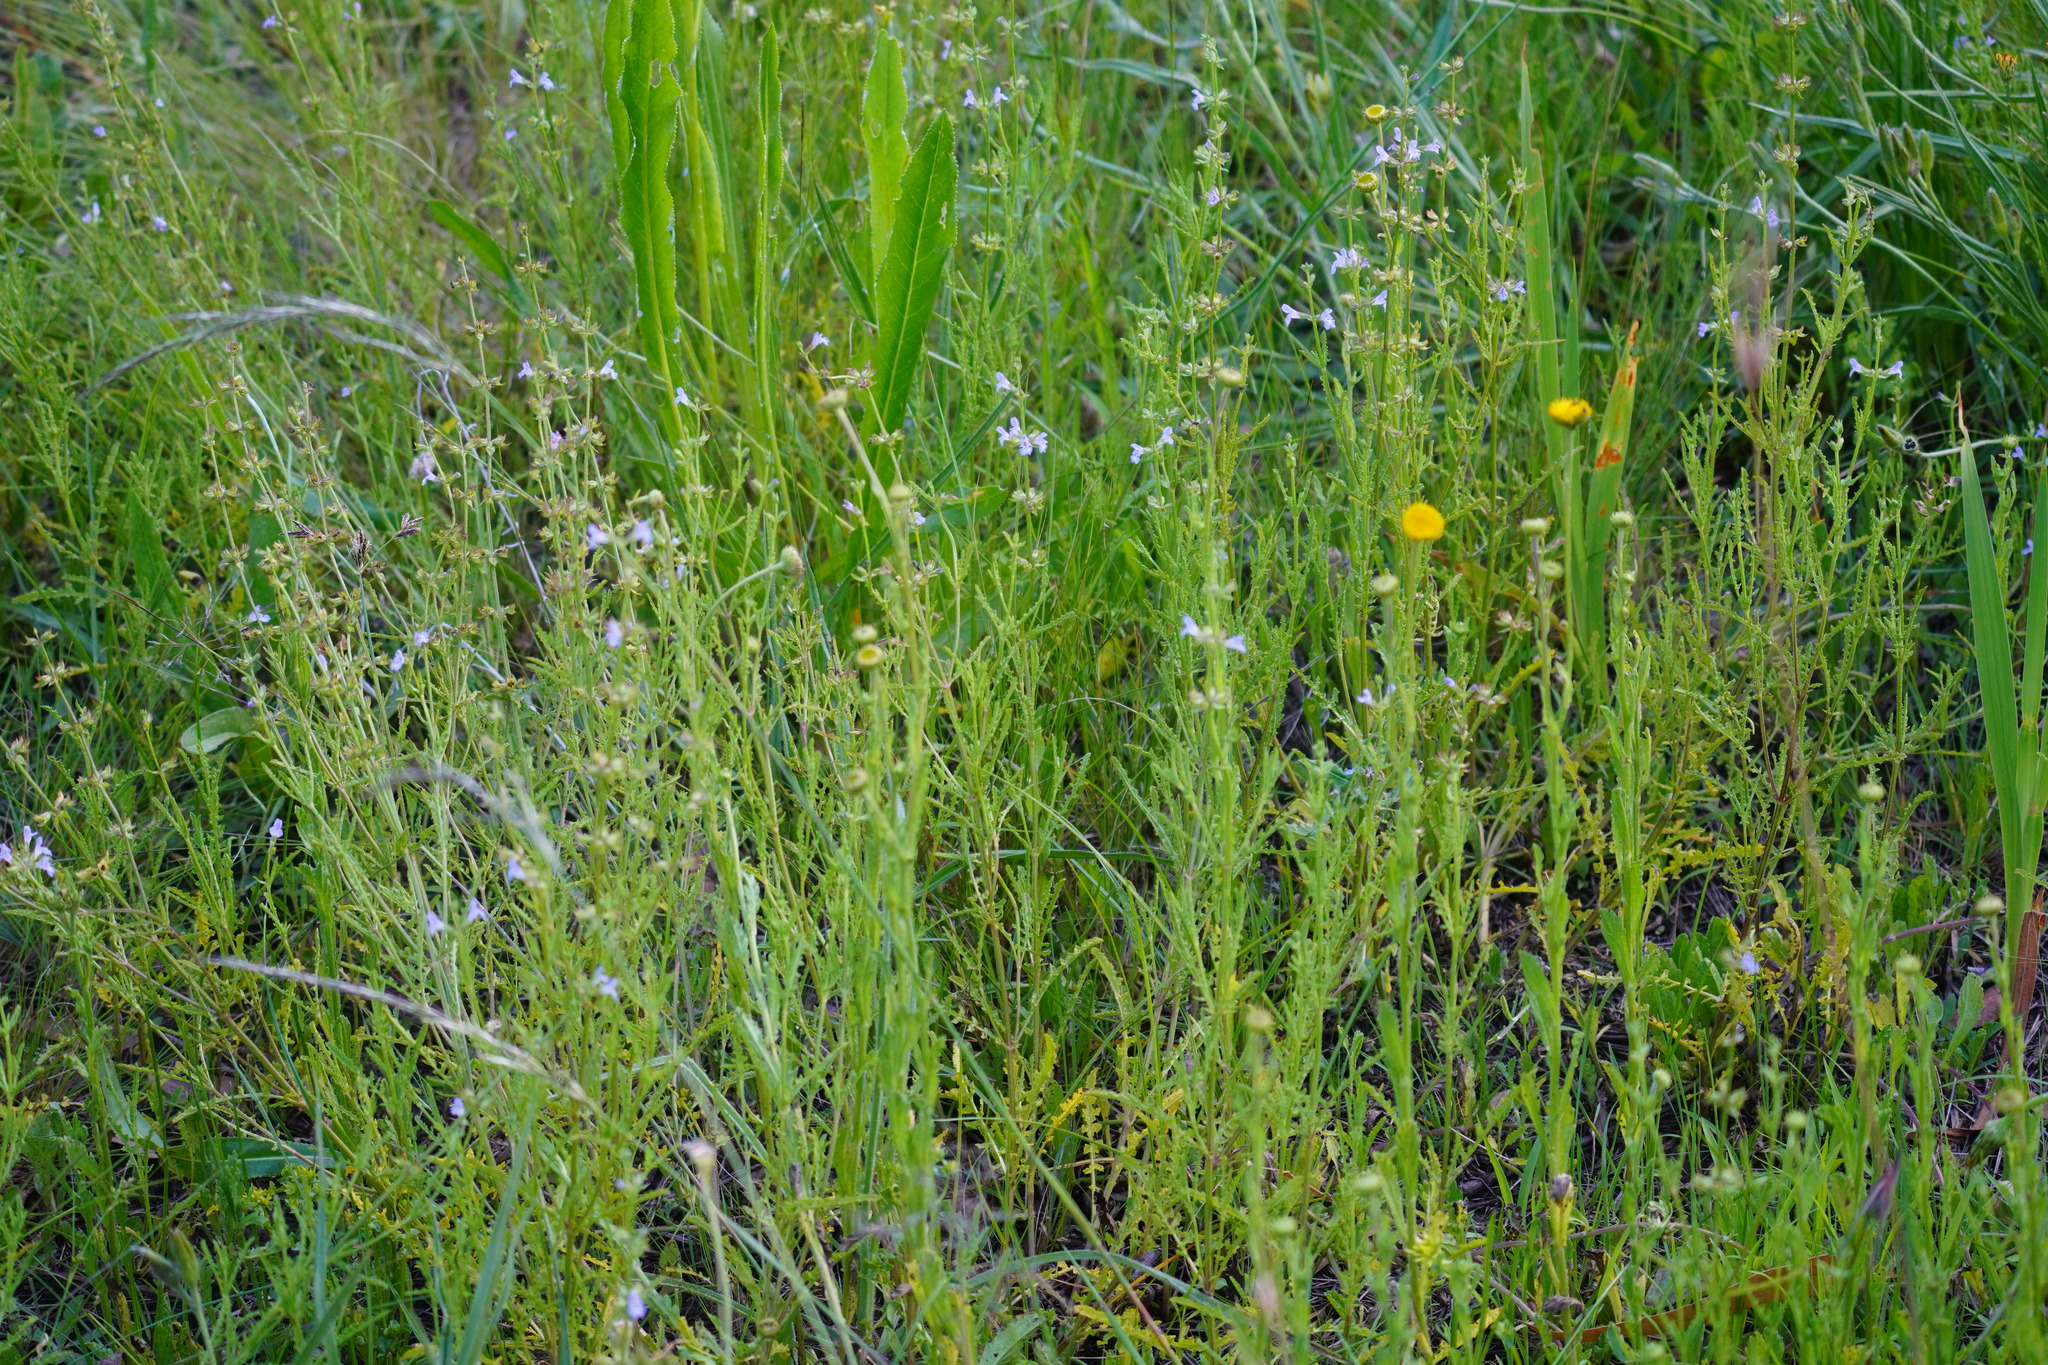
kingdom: Plantae
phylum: Tracheophyta
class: Magnoliopsida
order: Lamiales
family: Lamiaceae
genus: Salvia
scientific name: Salvia runcinata
